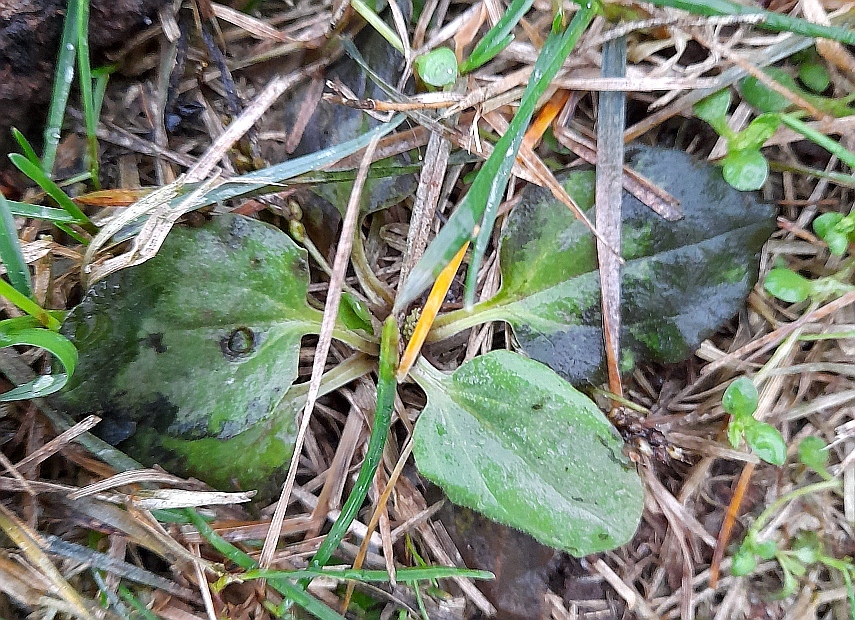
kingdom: Plantae
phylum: Tracheophyta
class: Magnoliopsida
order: Lamiales
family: Plantaginaceae
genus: Plantago
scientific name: Plantago major
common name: Common plantain
